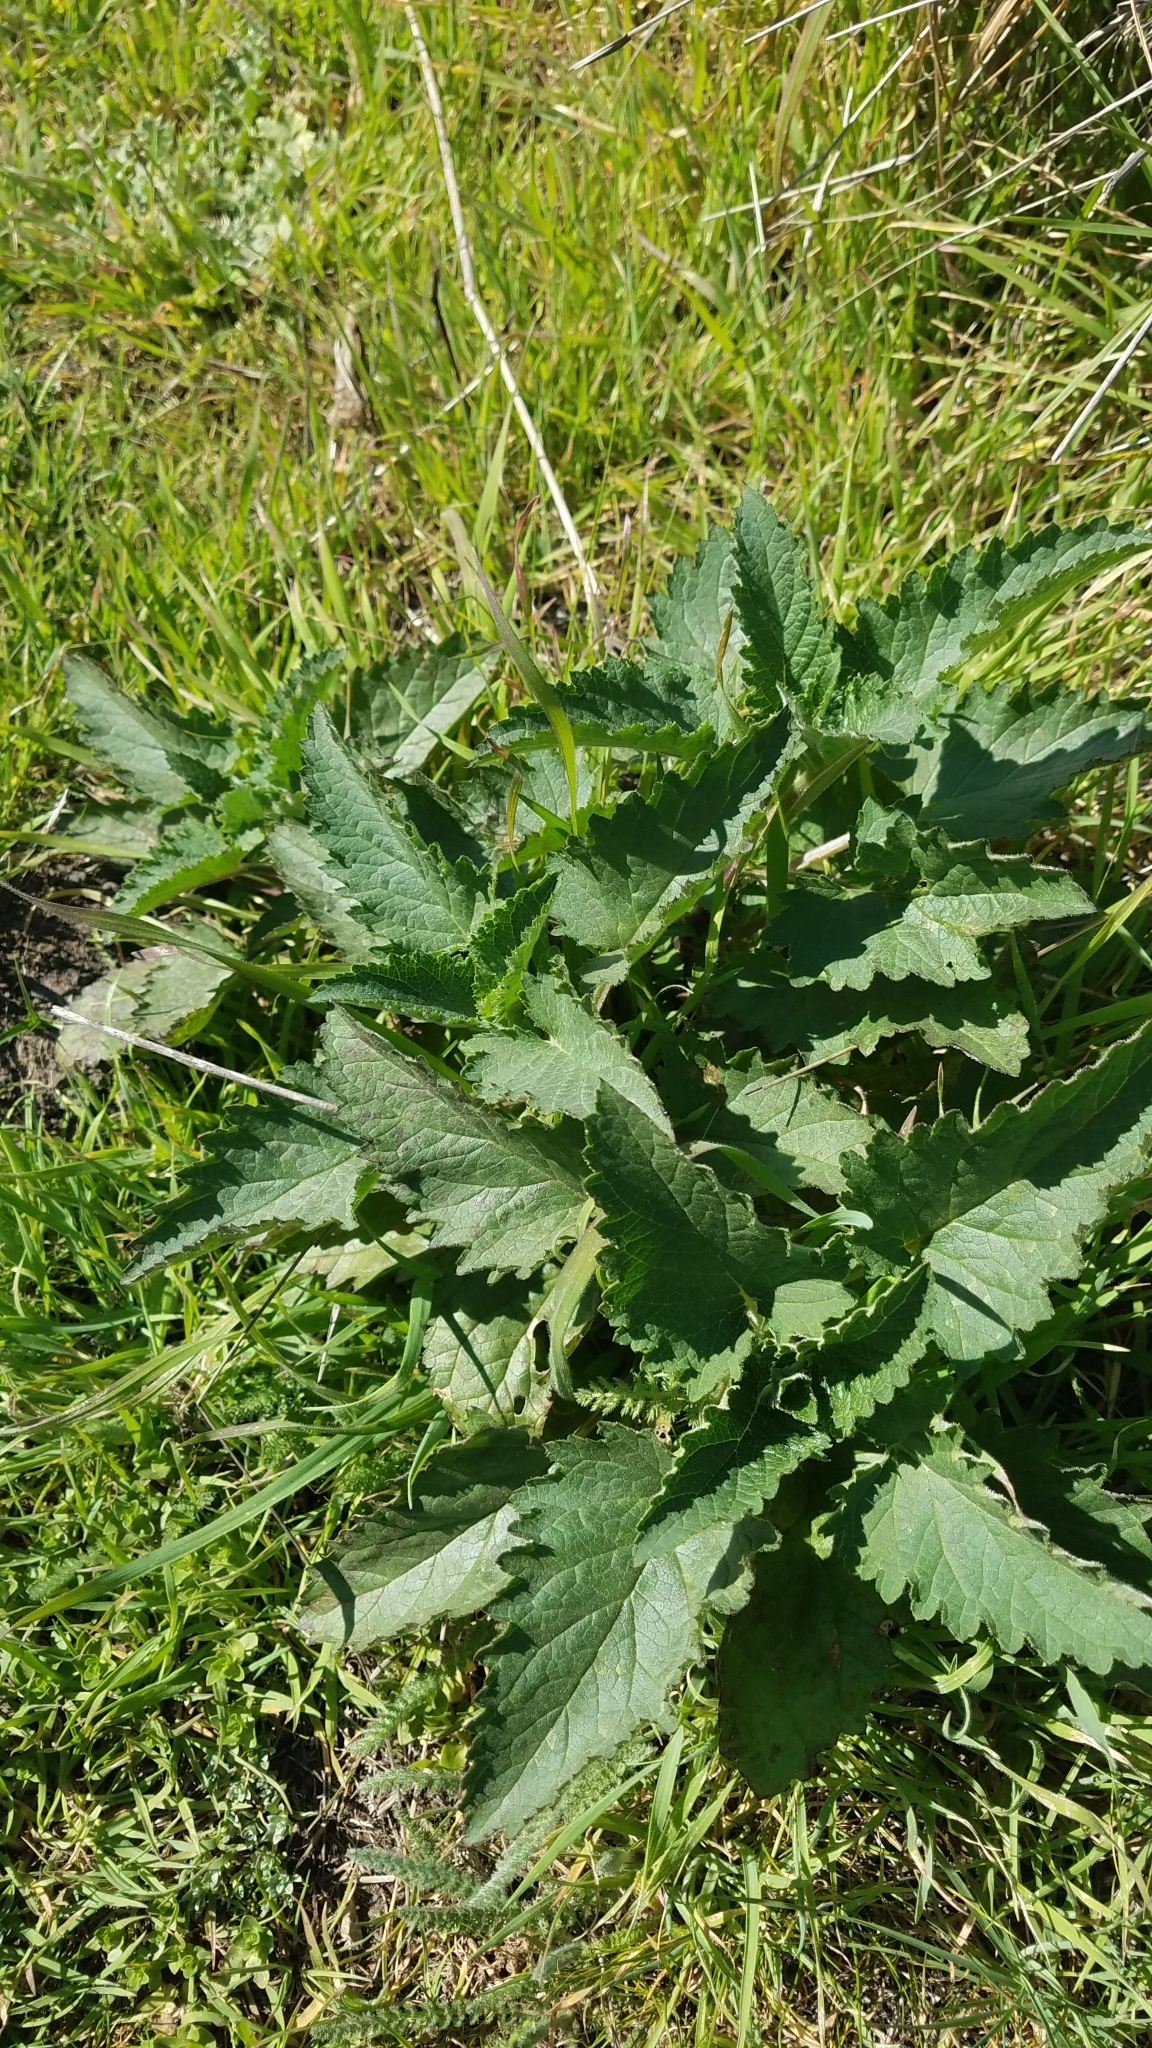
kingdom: Plantae
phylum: Tracheophyta
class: Magnoliopsida
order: Lamiales
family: Scrophulariaceae
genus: Scrophularia
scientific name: Scrophularia californica
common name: California figwort
